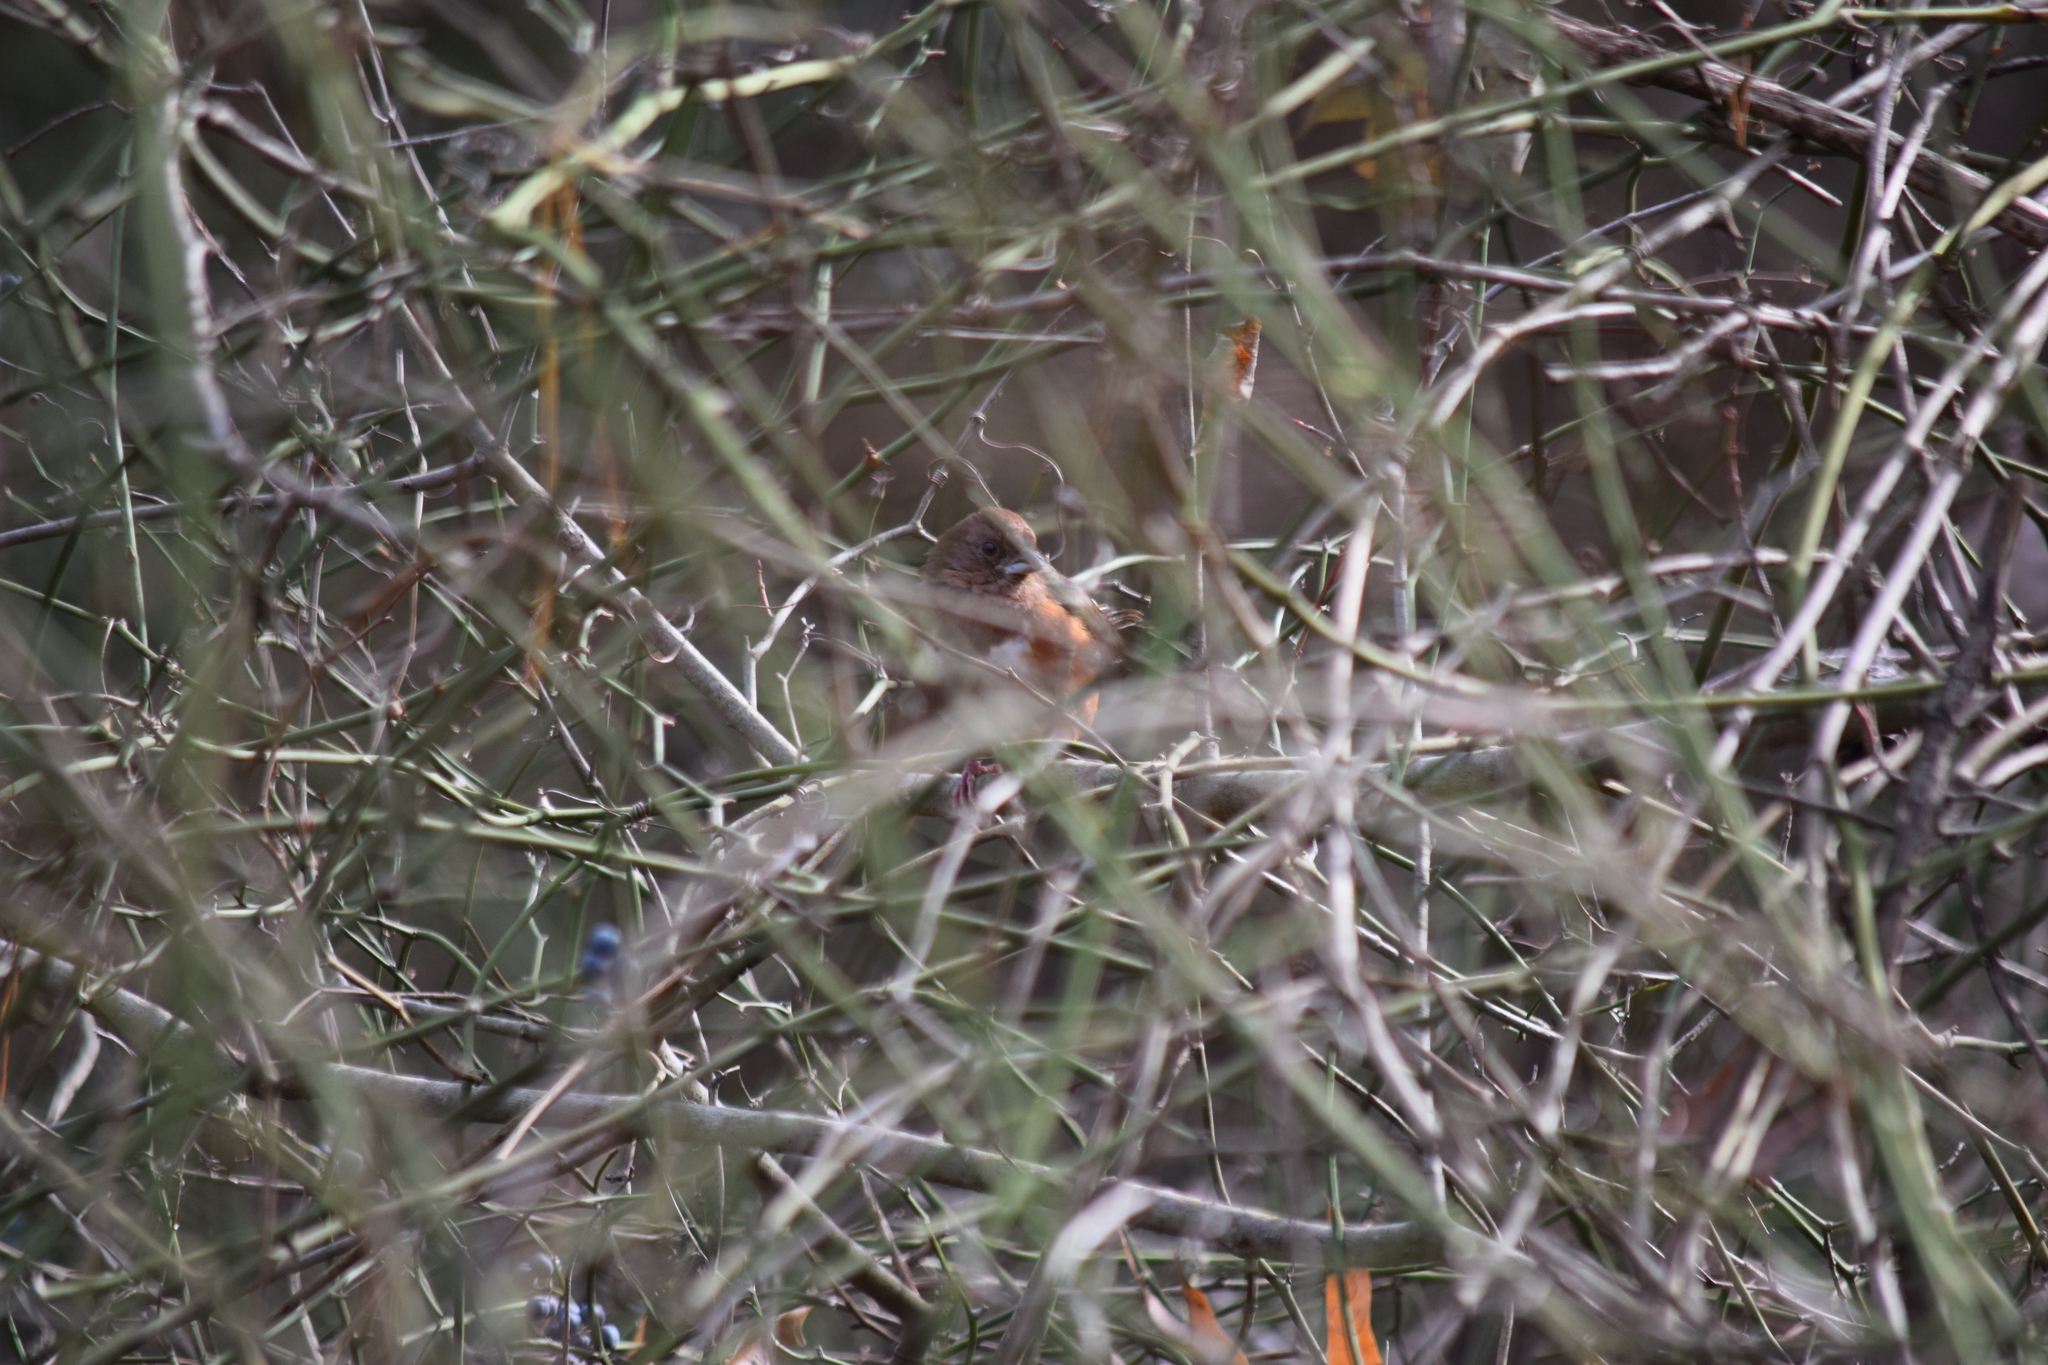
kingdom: Animalia
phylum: Chordata
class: Aves
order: Passeriformes
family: Passerellidae
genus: Pipilo
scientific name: Pipilo erythrophthalmus
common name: Eastern towhee
